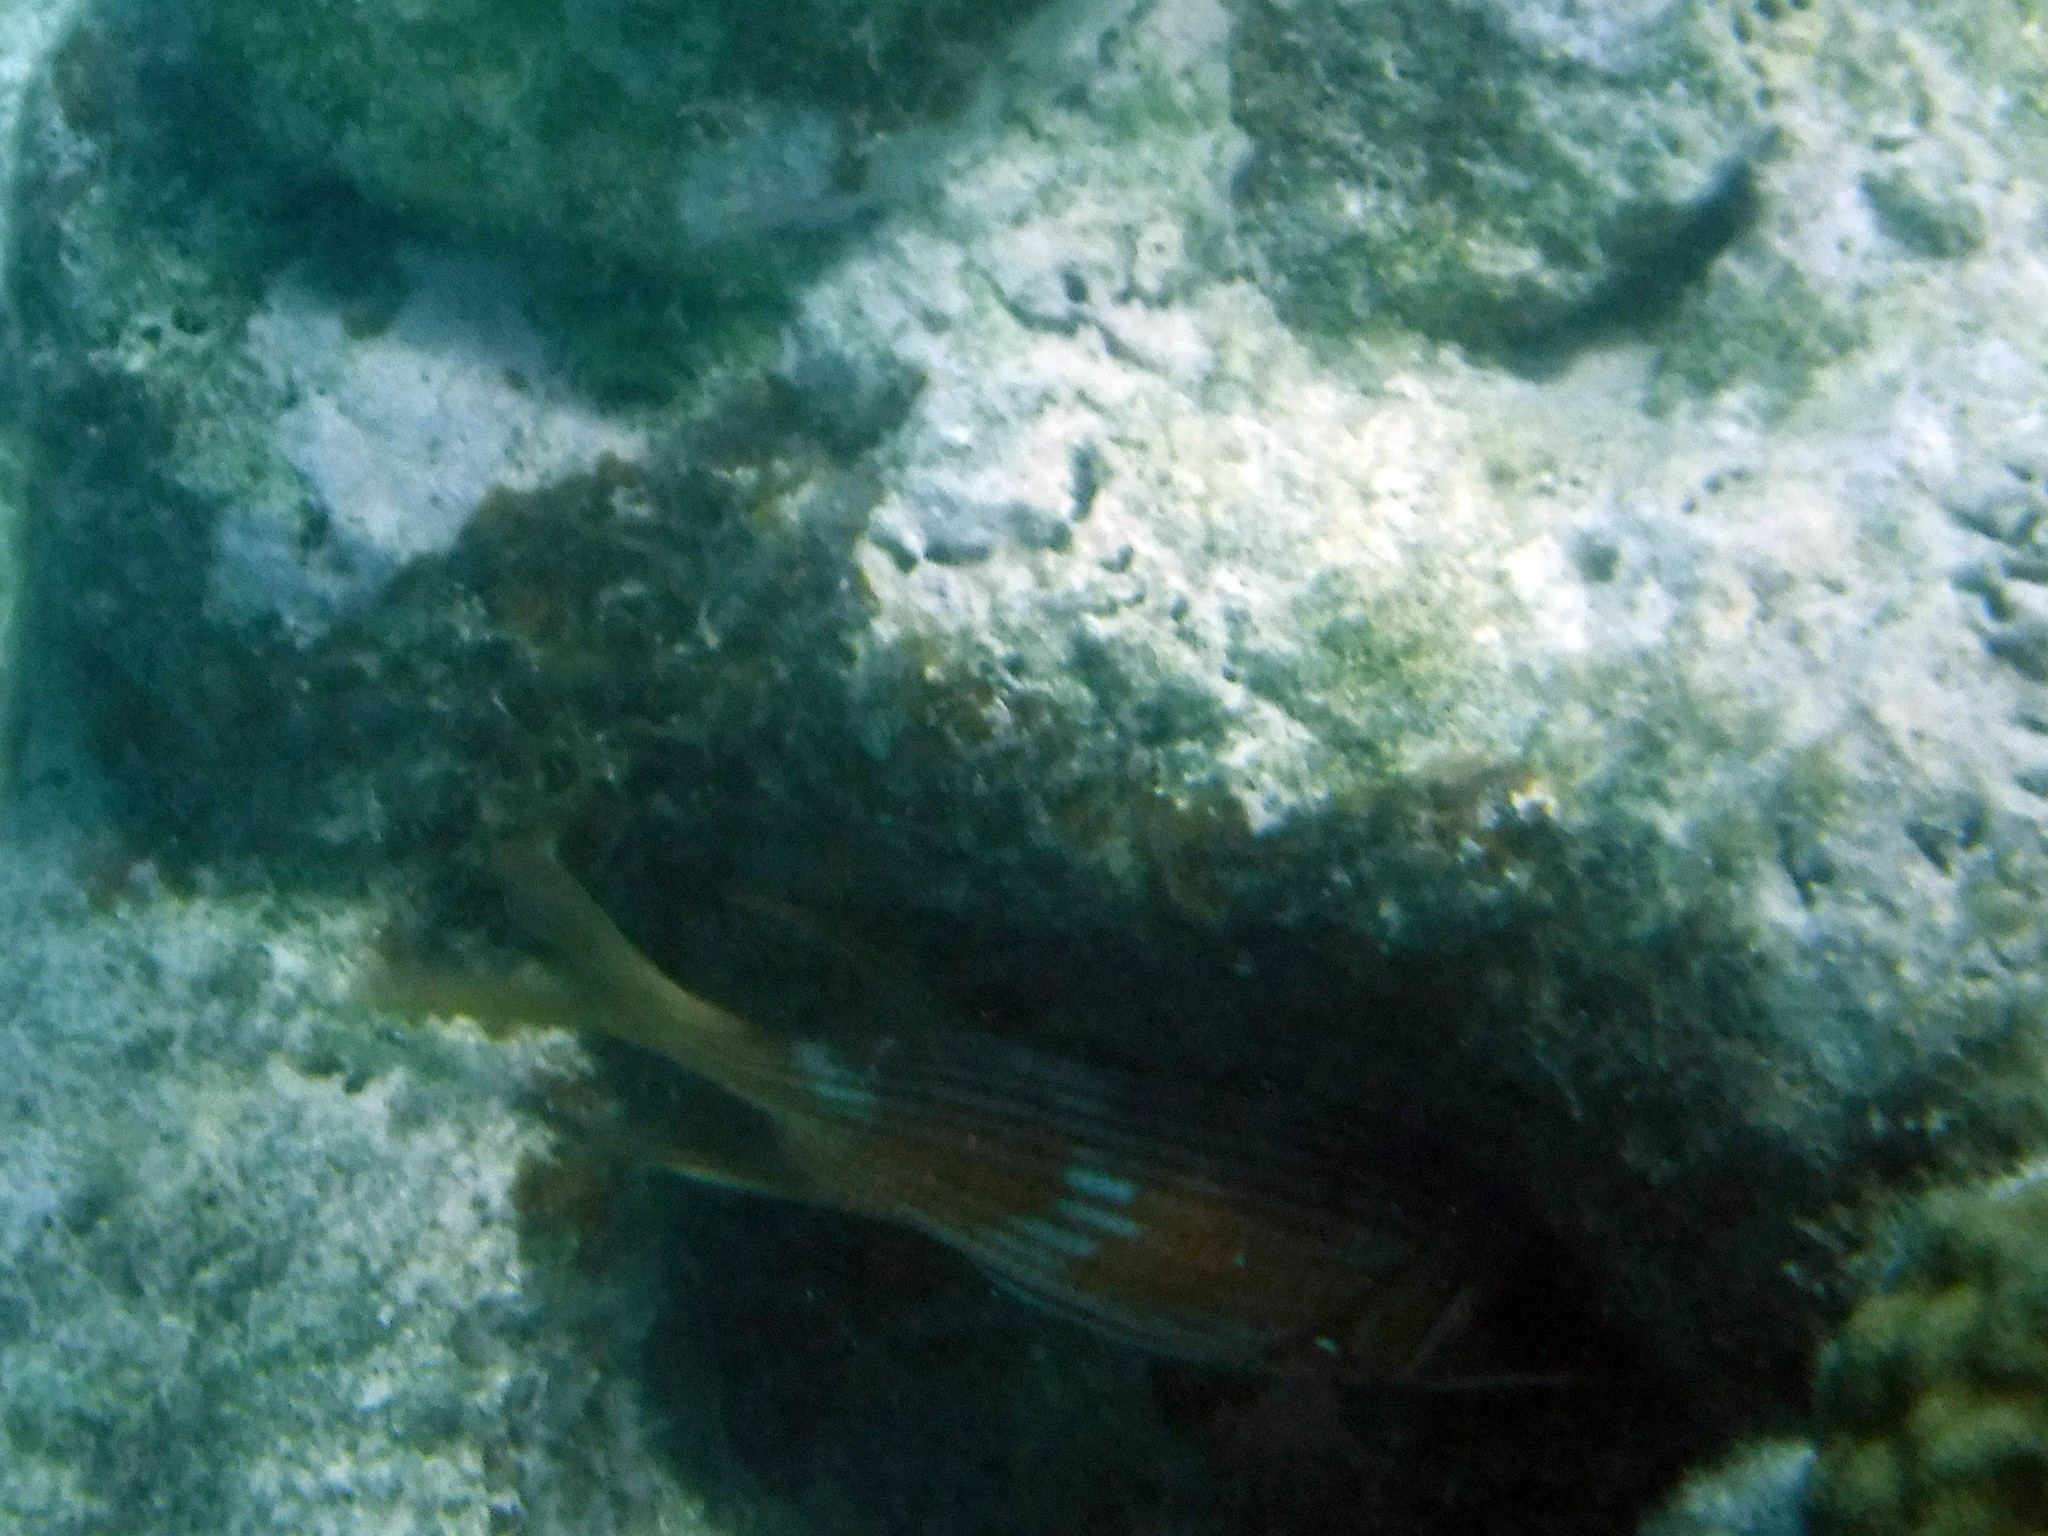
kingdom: Animalia
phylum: Chordata
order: Beryciformes
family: Holocentridae
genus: Holocentrus
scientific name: Holocentrus adscensionis
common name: Squirrelfish
